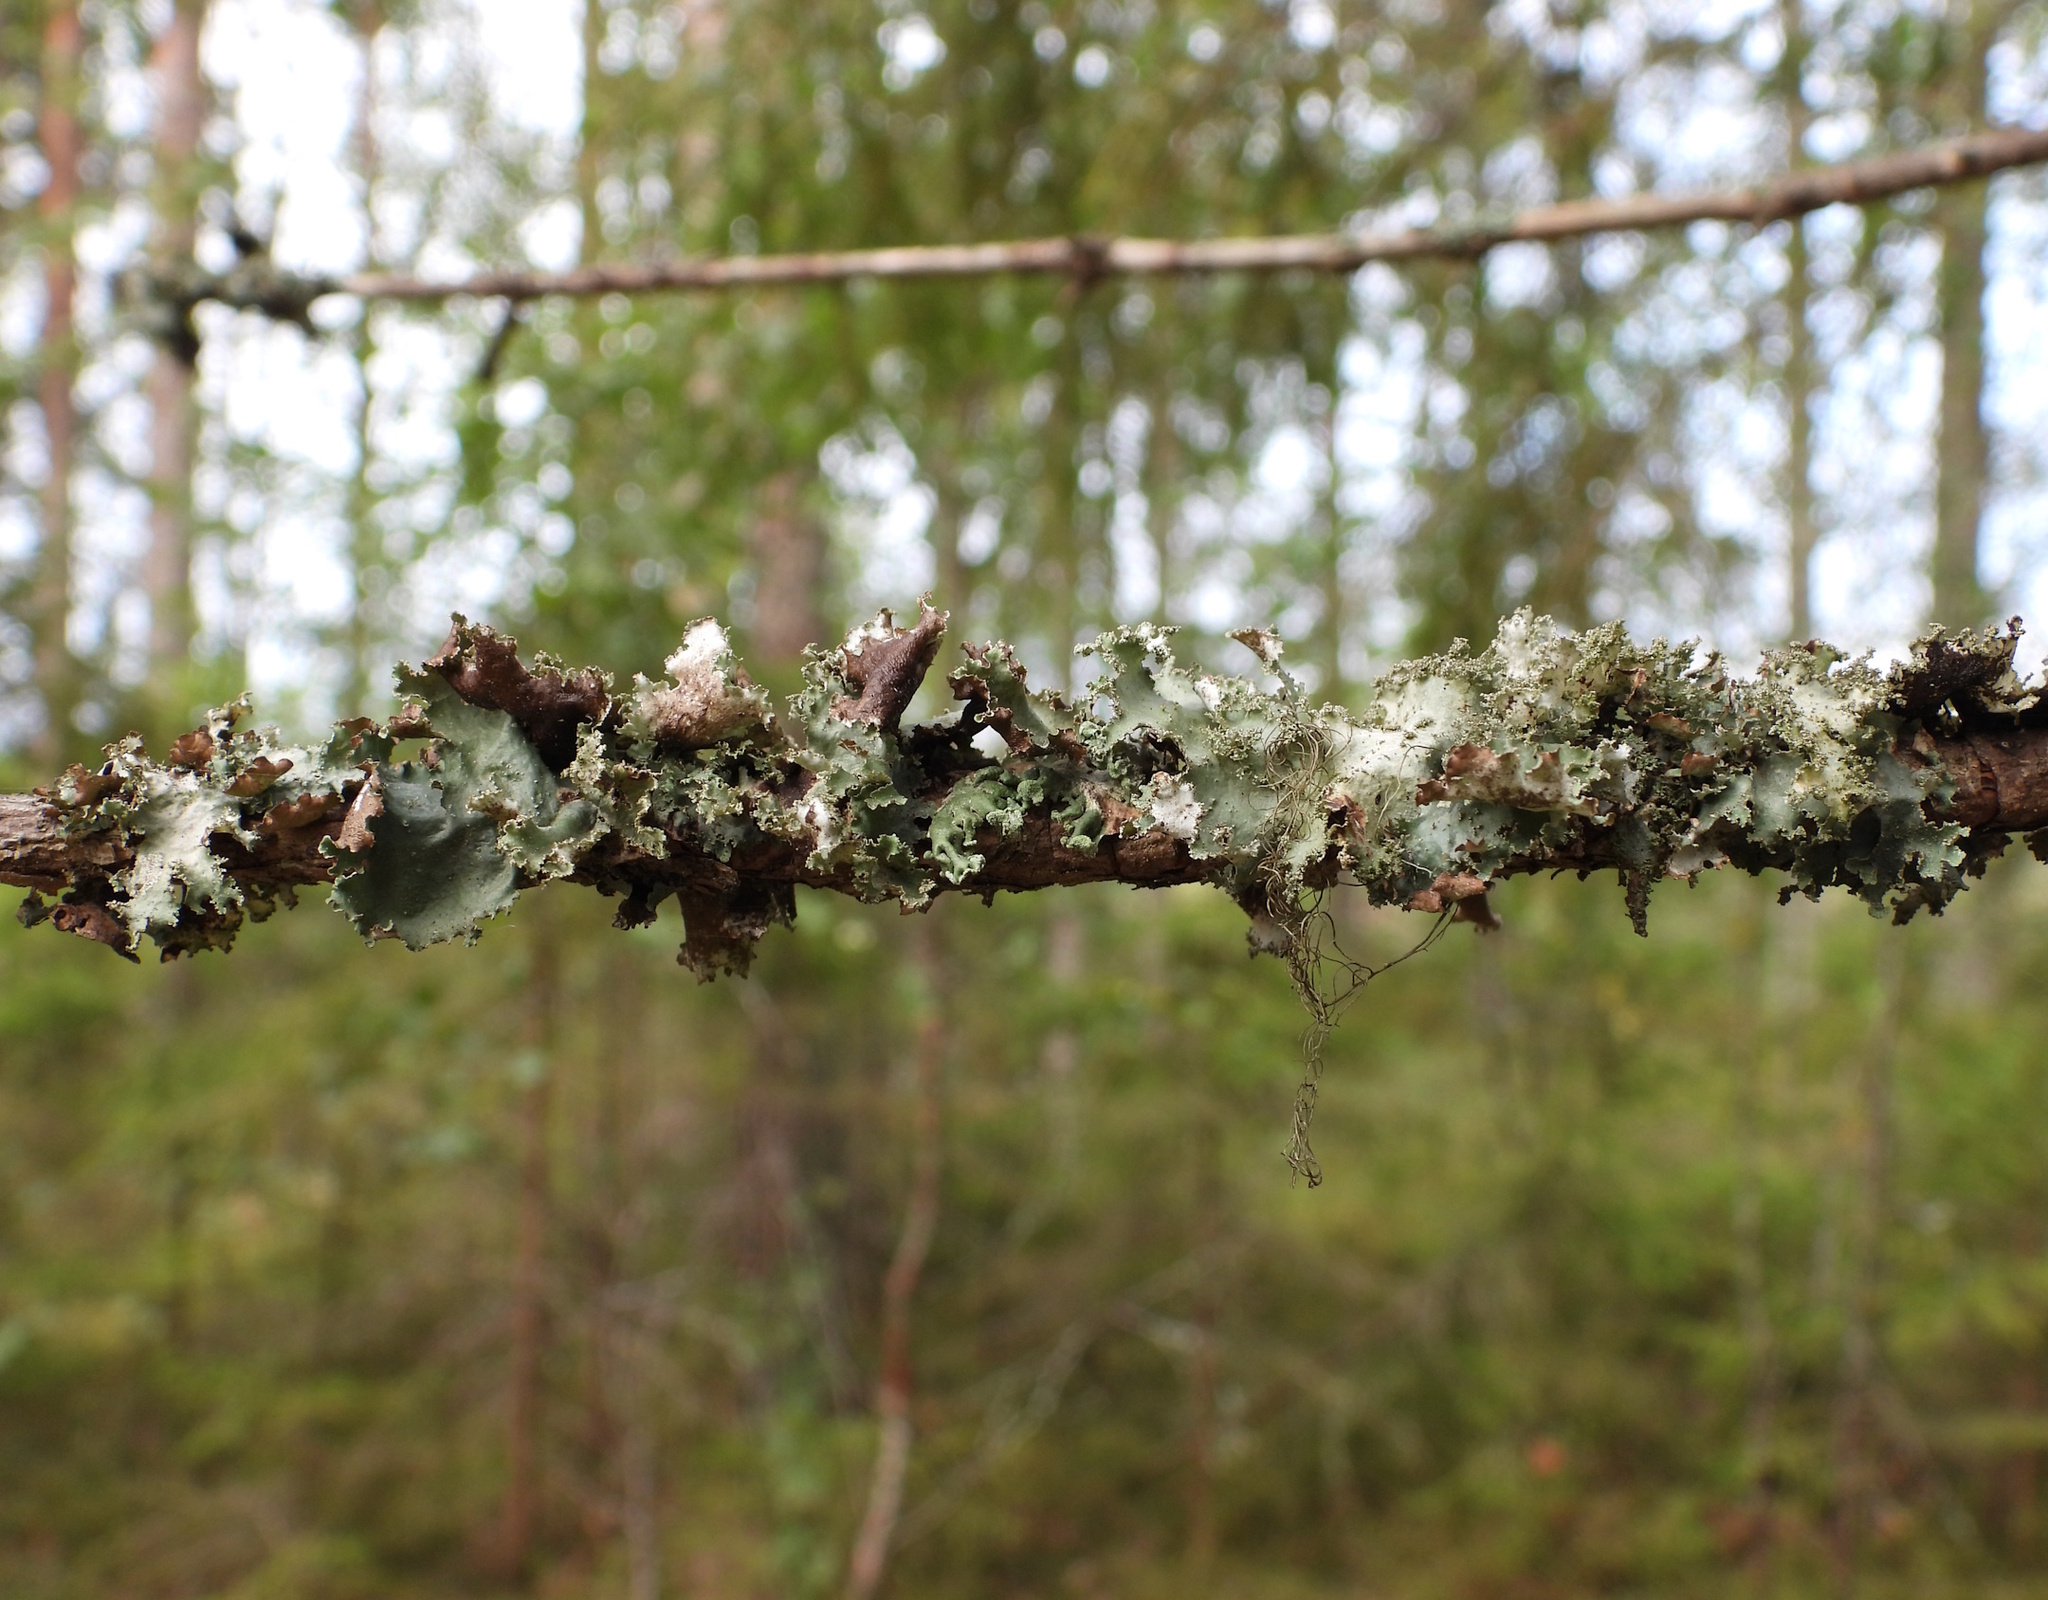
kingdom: Fungi
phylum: Ascomycota
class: Lecanoromycetes
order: Lecanorales
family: Parmeliaceae
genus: Platismatia
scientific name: Platismatia glauca
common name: Varied rag lichen
